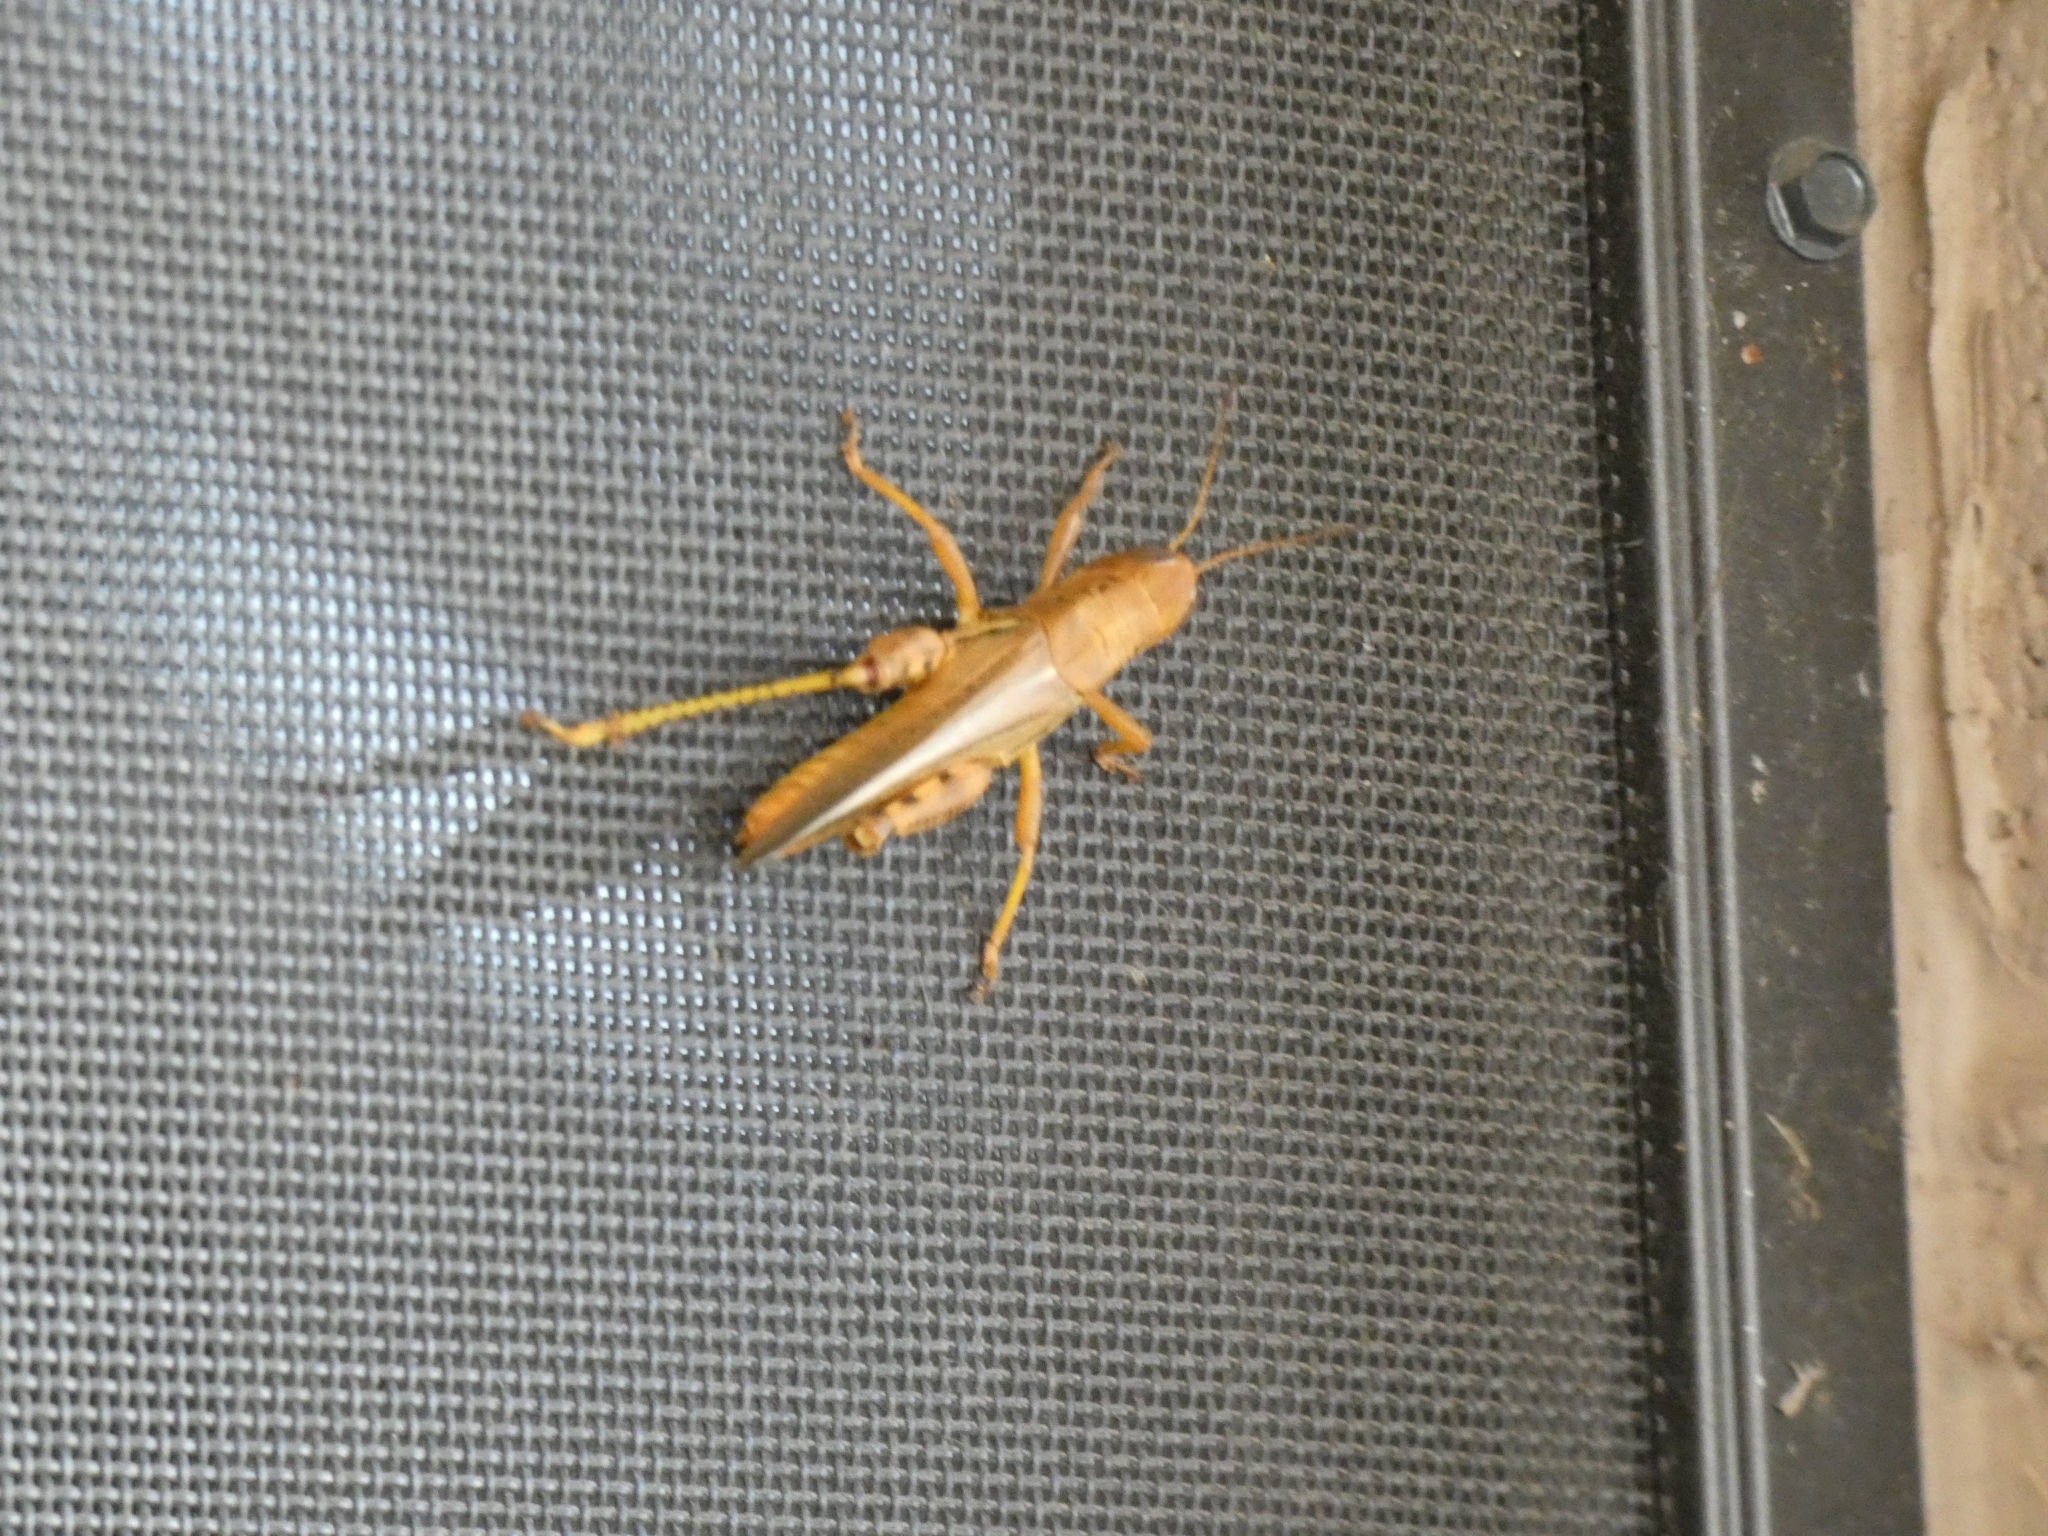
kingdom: Animalia
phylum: Arthropoda
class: Insecta
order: Orthoptera
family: Acrididae
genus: Melanoplus
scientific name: Melanoplus differentialis
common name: Differential grasshopper
